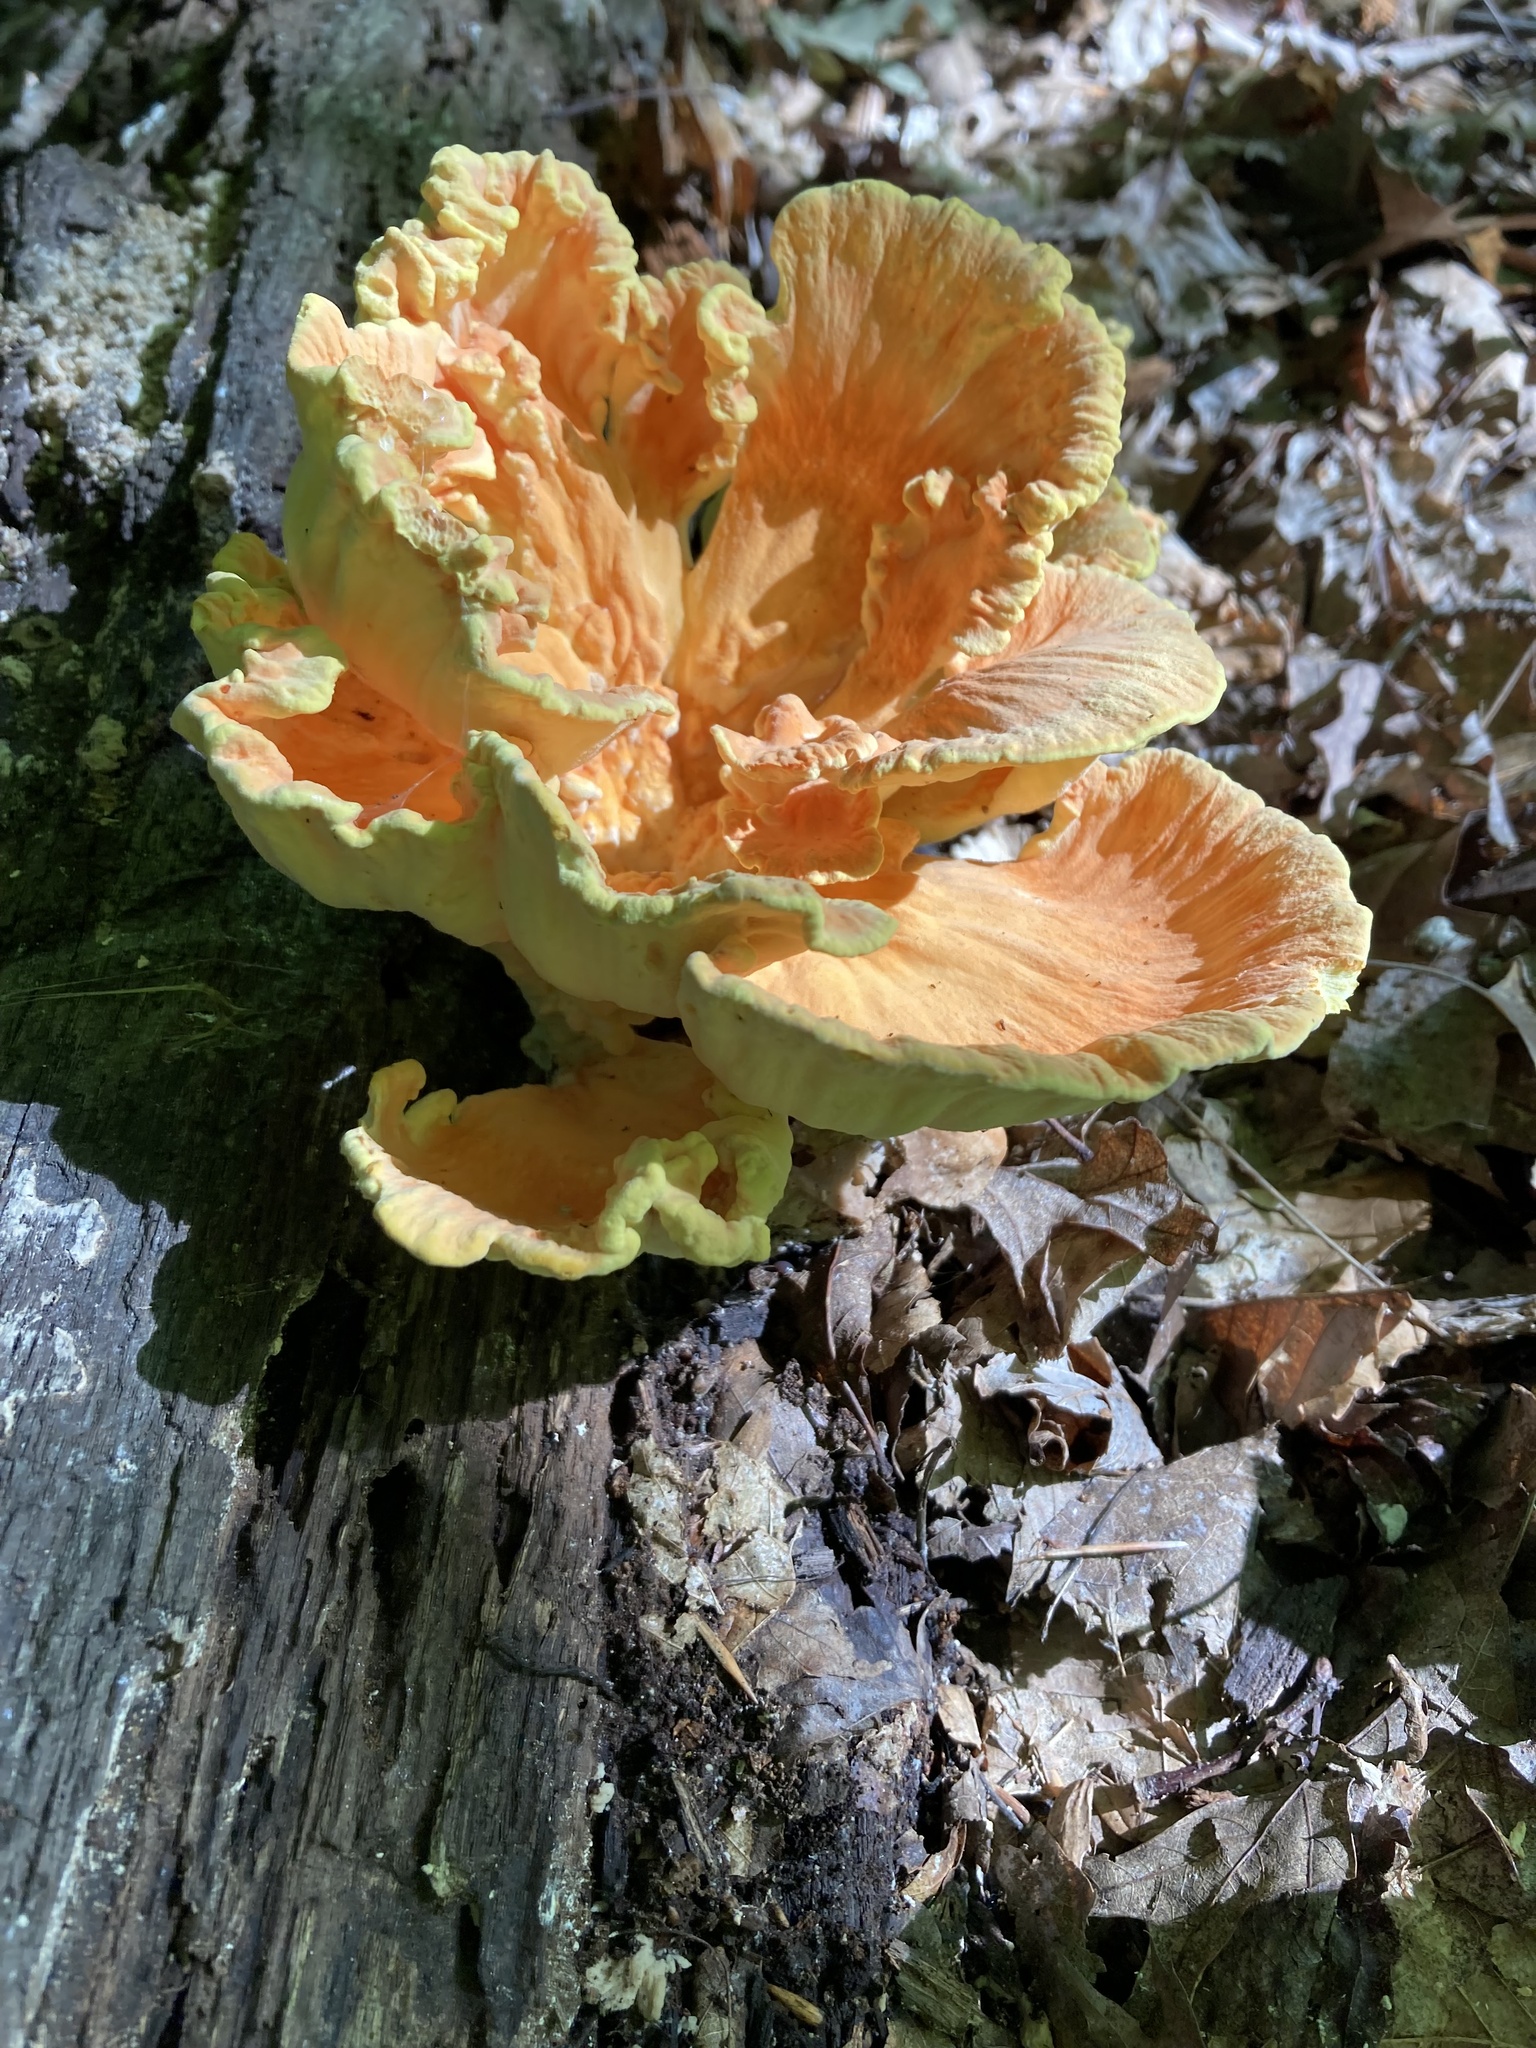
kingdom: Fungi
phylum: Basidiomycota
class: Agaricomycetes
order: Polyporales
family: Laetiporaceae
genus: Laetiporus
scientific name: Laetiporus sulphureus
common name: Chicken of the woods
